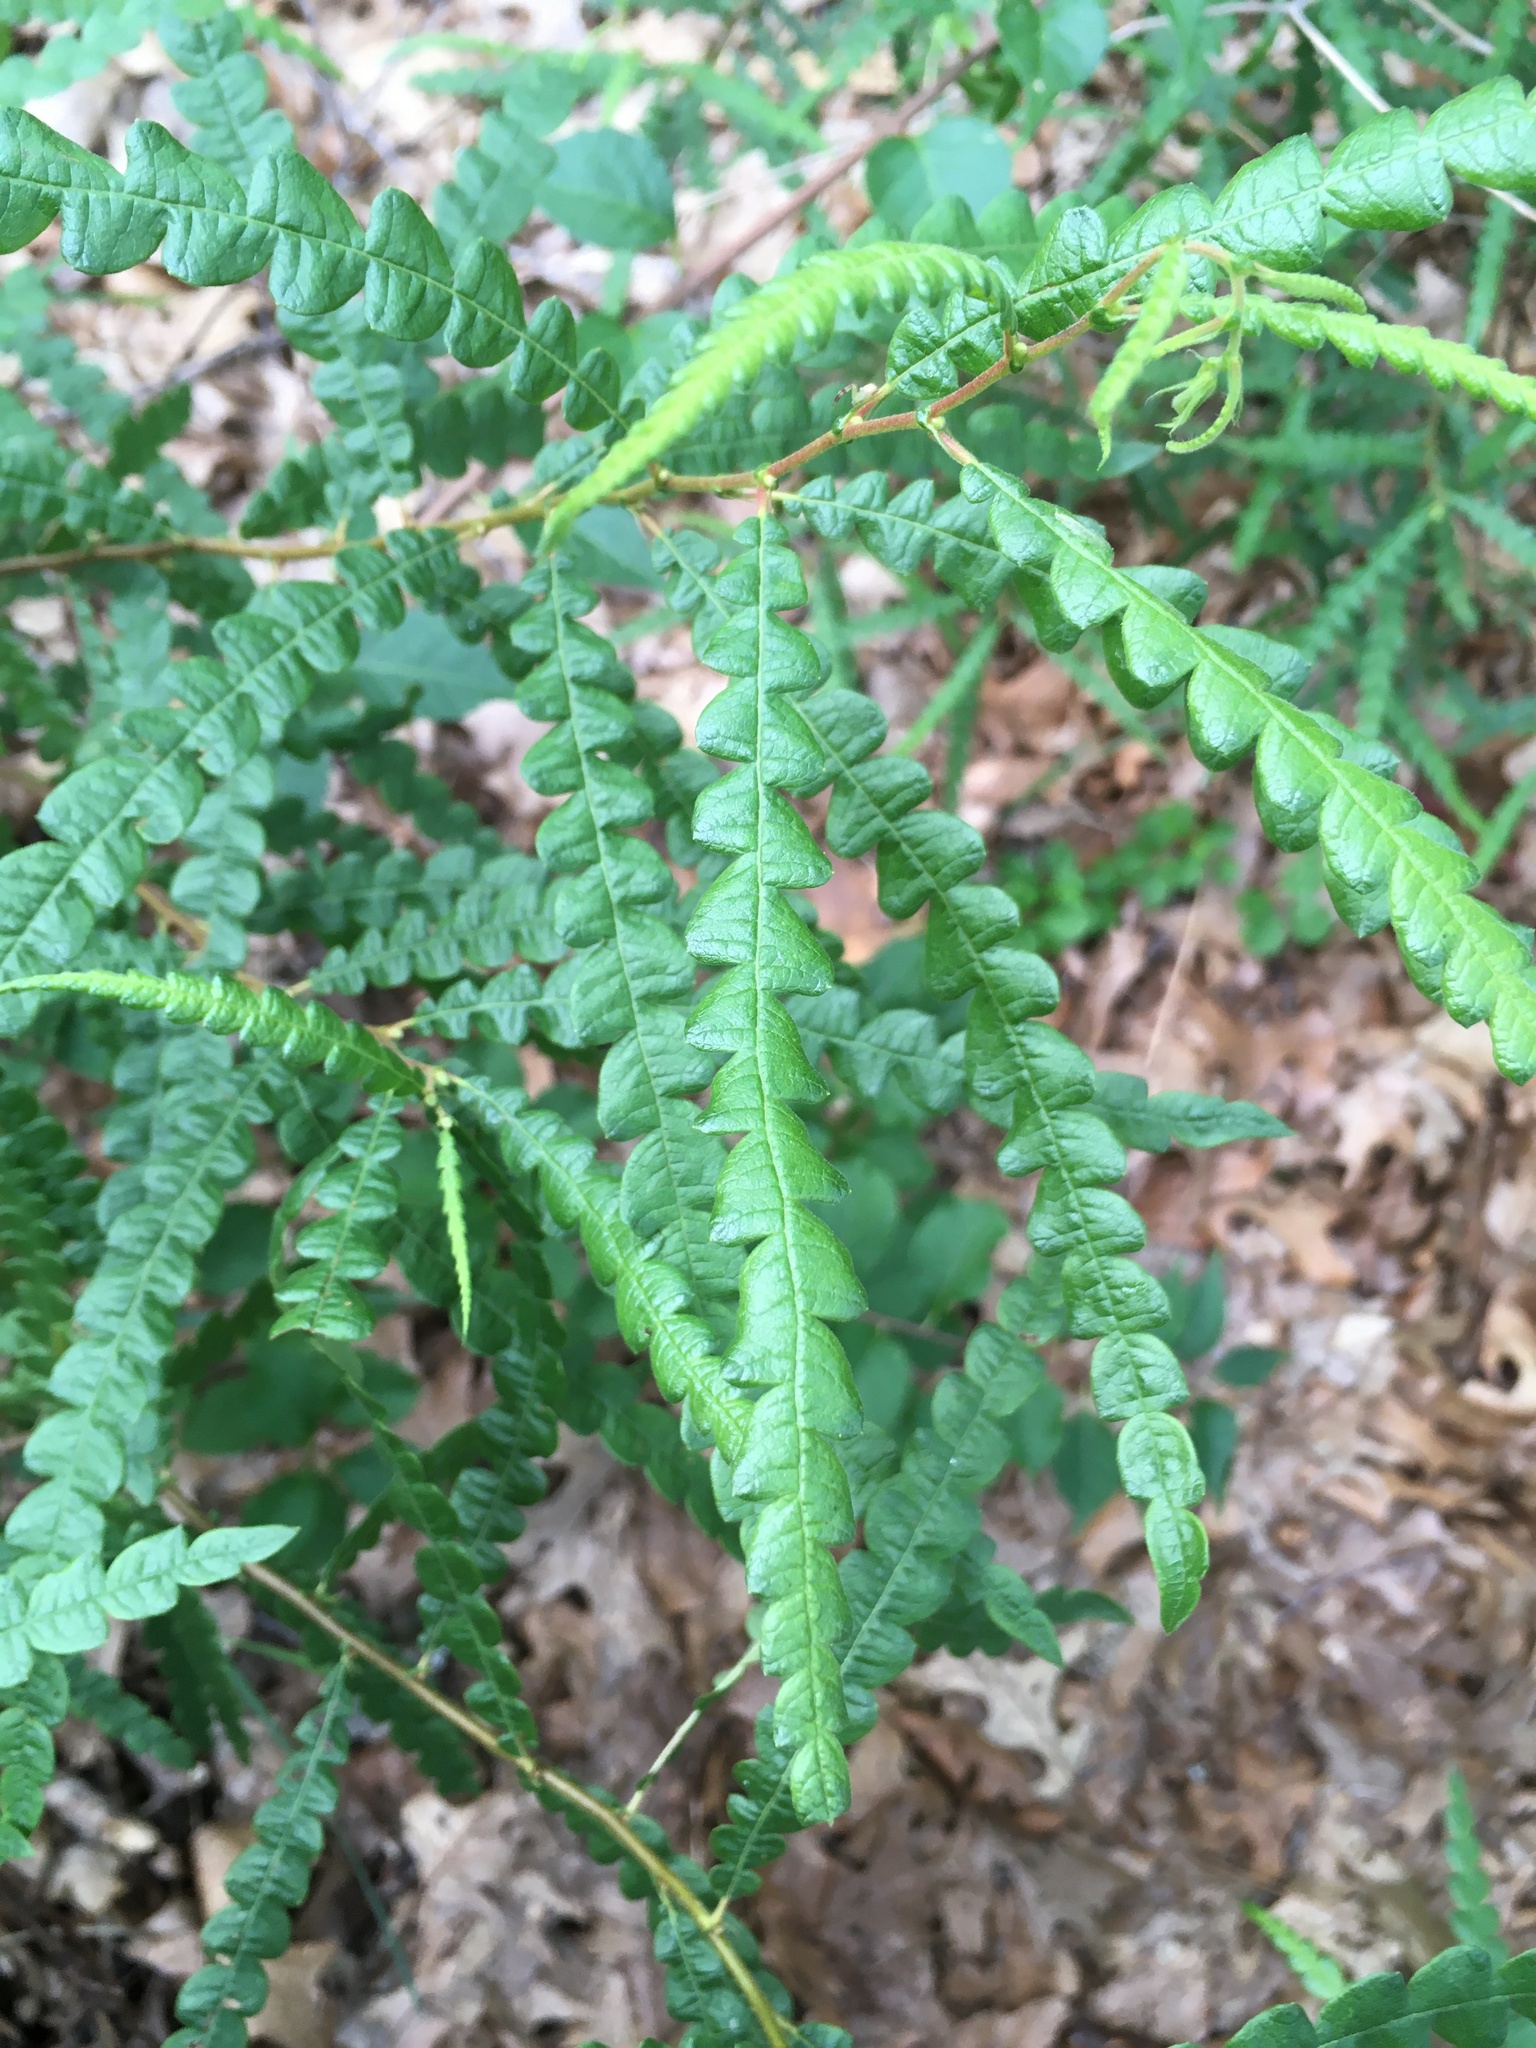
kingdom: Plantae
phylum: Tracheophyta
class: Magnoliopsida
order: Fagales
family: Myricaceae
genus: Comptonia
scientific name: Comptonia peregrina
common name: Sweet-fern
